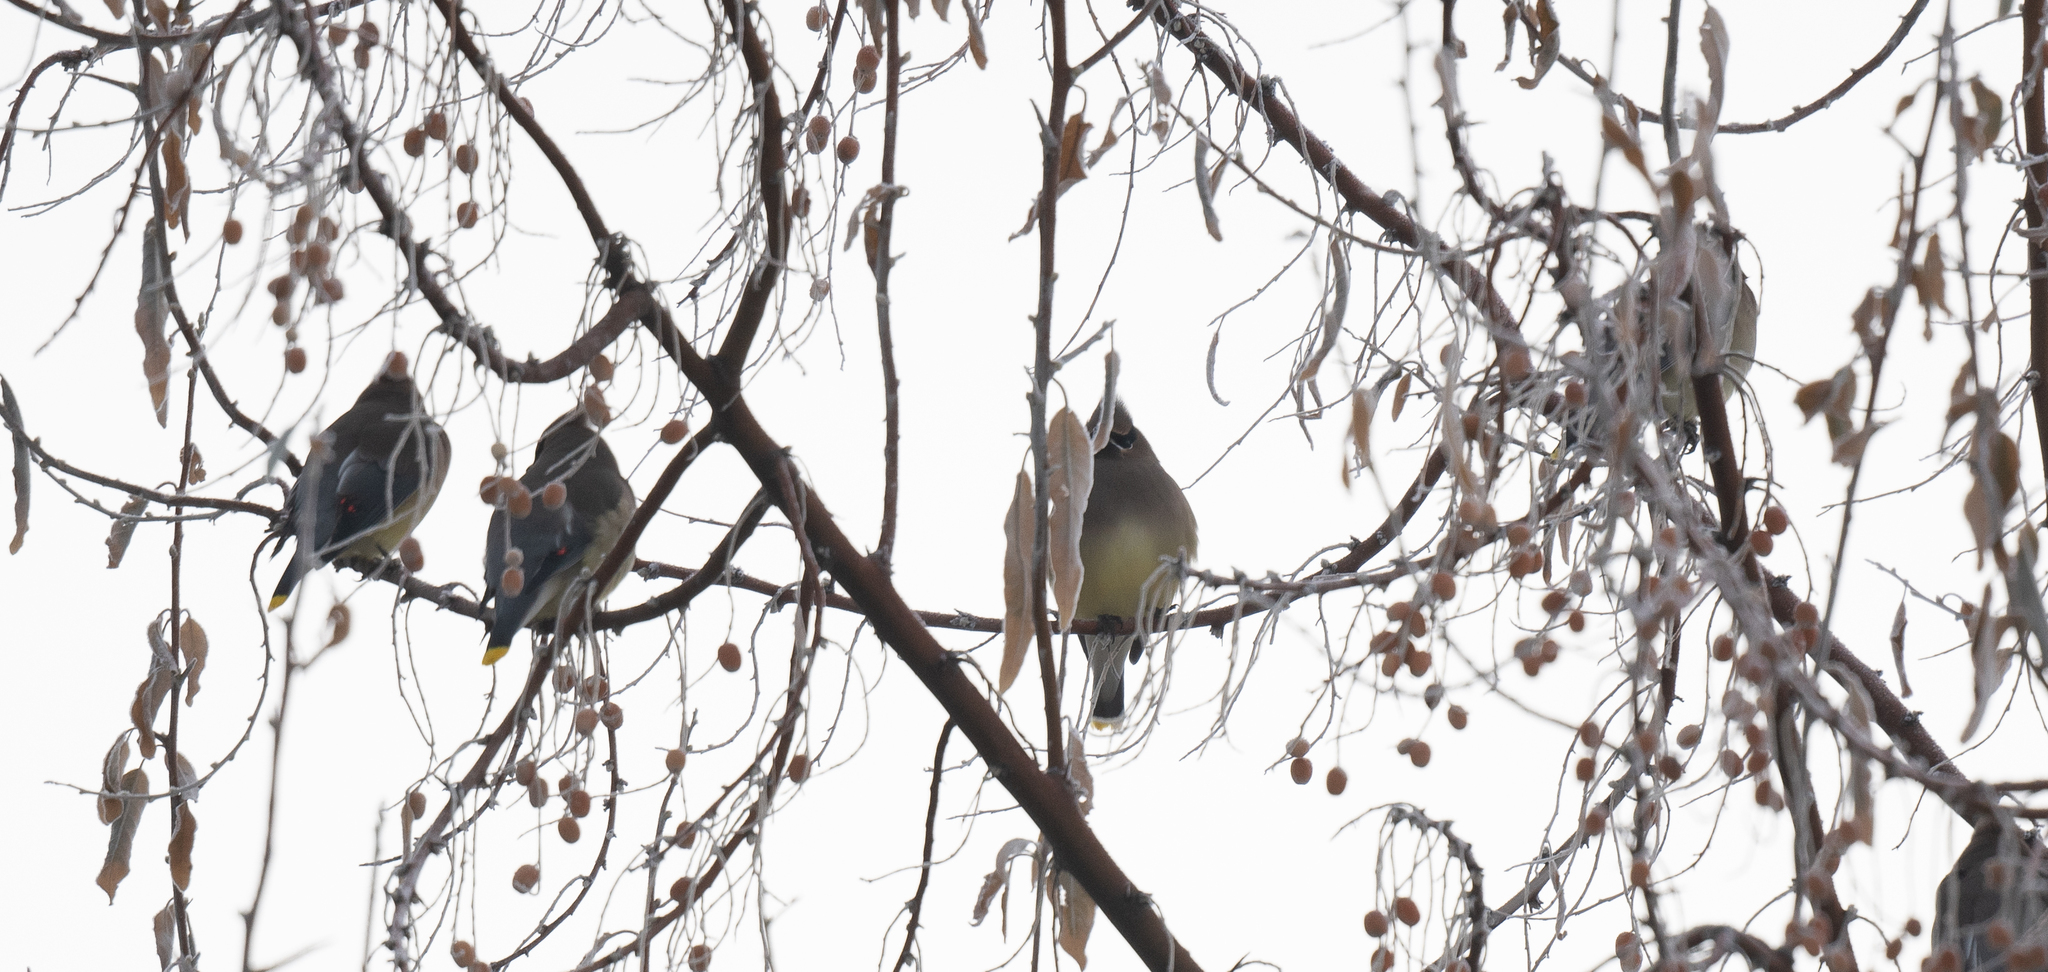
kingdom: Animalia
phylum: Chordata
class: Aves
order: Passeriformes
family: Bombycillidae
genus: Bombycilla
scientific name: Bombycilla cedrorum
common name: Cedar waxwing
